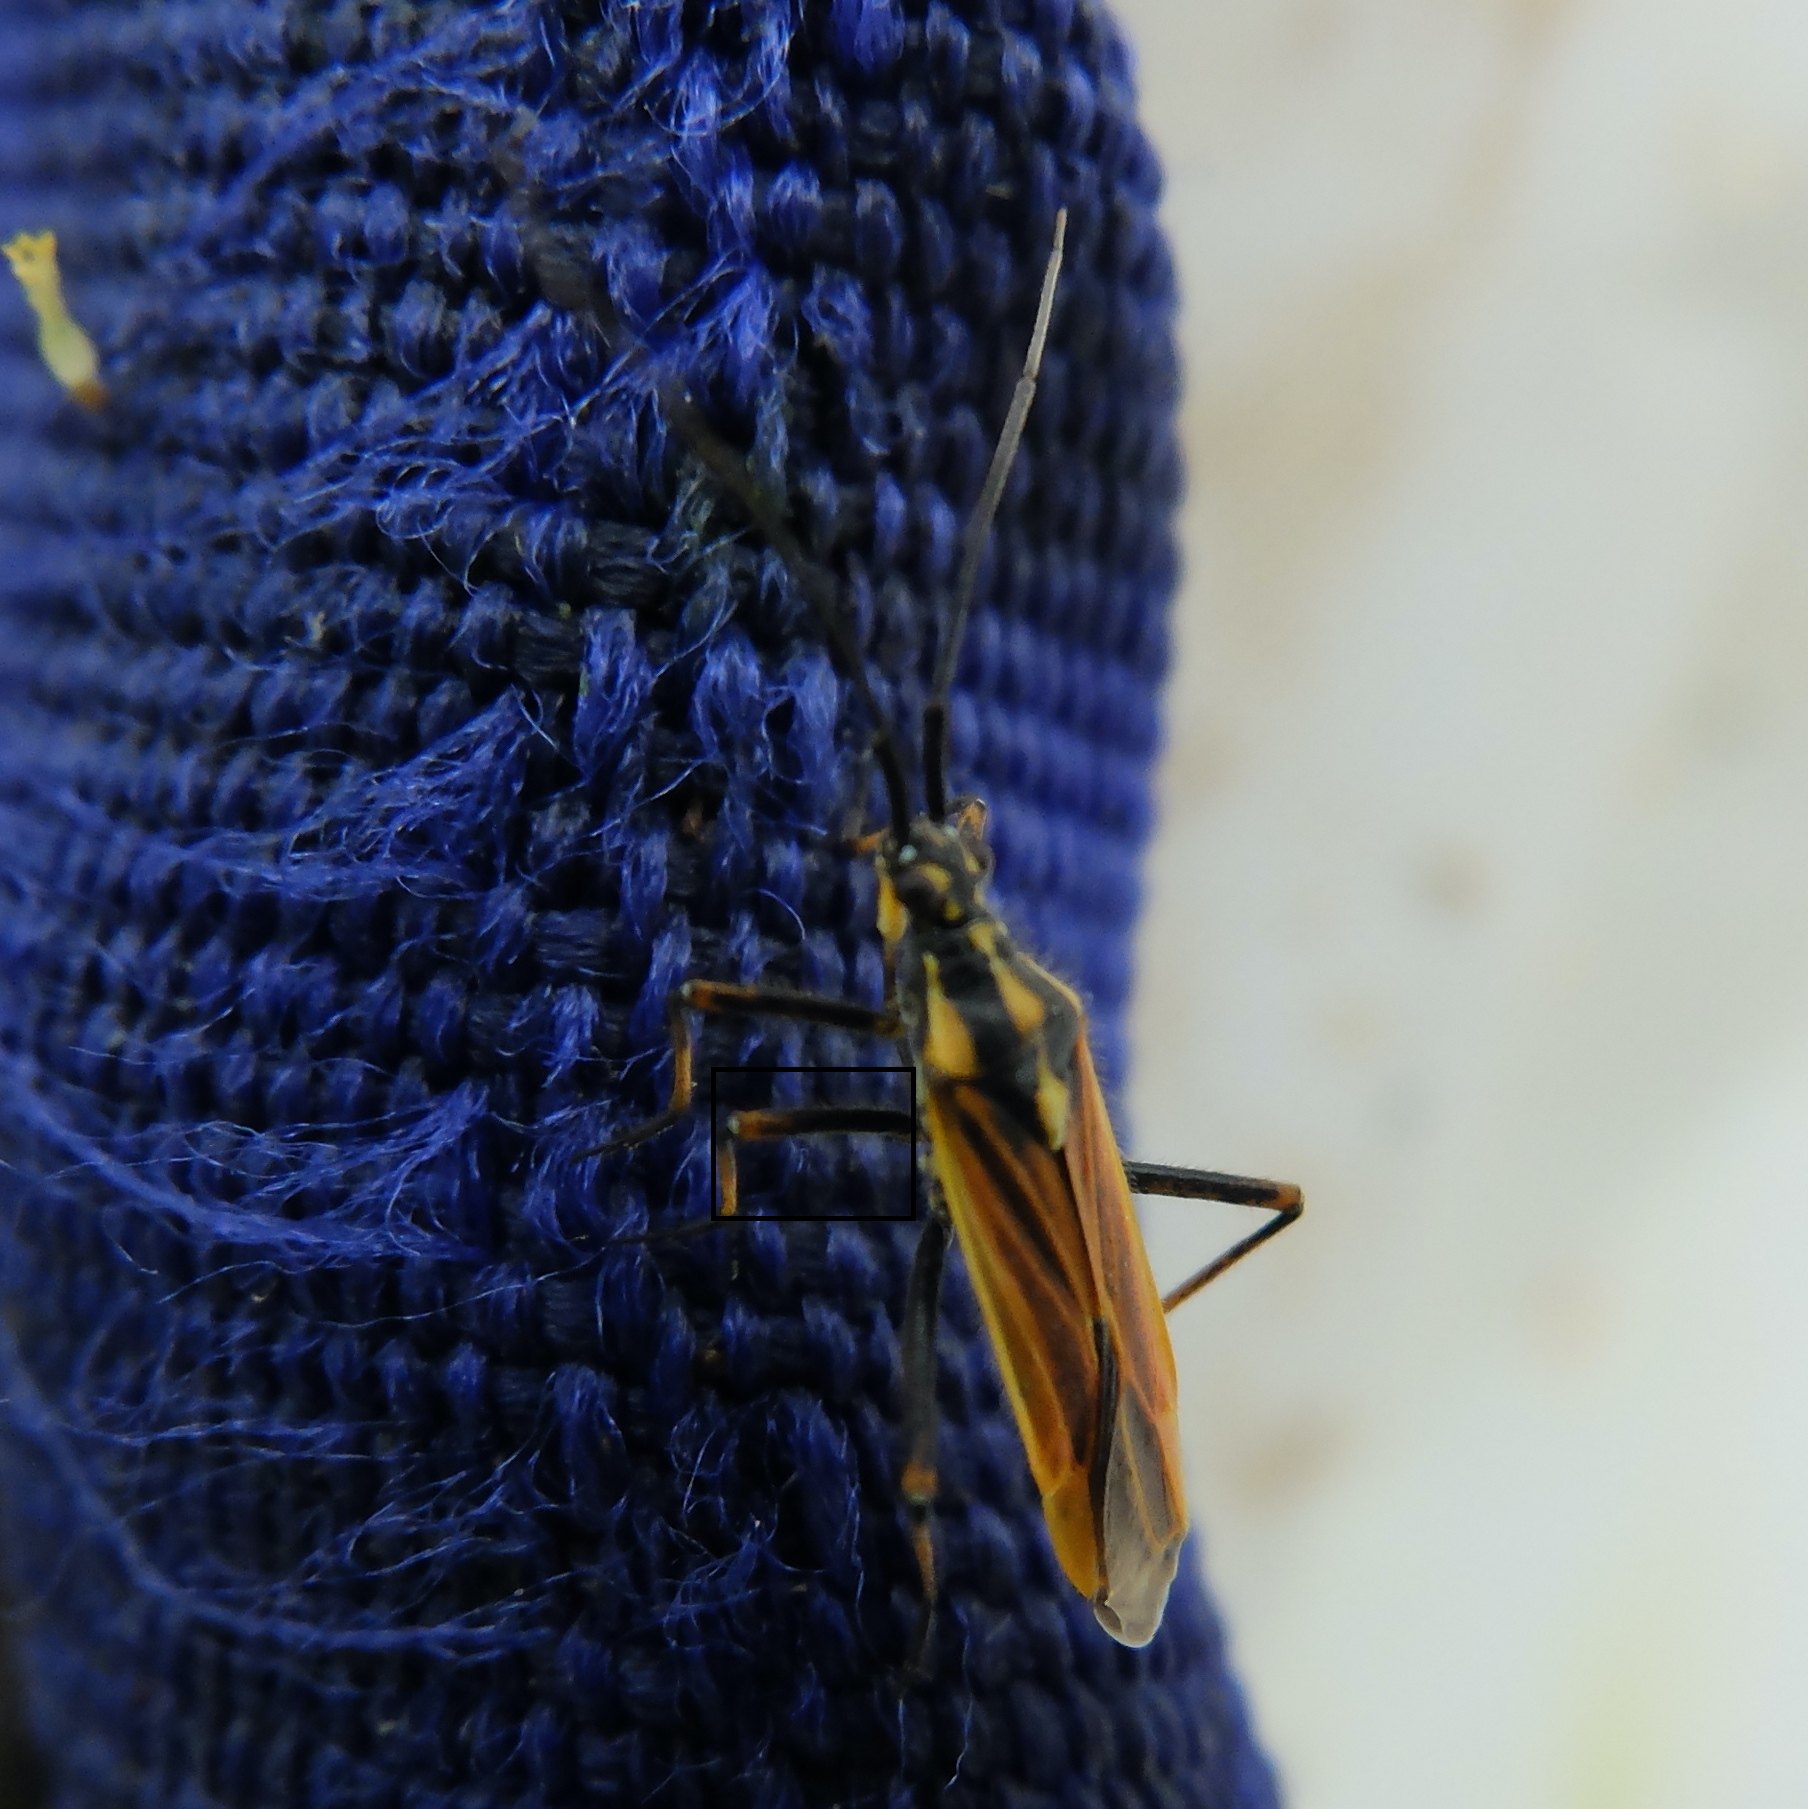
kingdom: Animalia
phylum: Arthropoda
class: Insecta
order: Hemiptera
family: Miridae
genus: Leptopterna
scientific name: Leptopterna dolabrata
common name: Meadow plant bug
